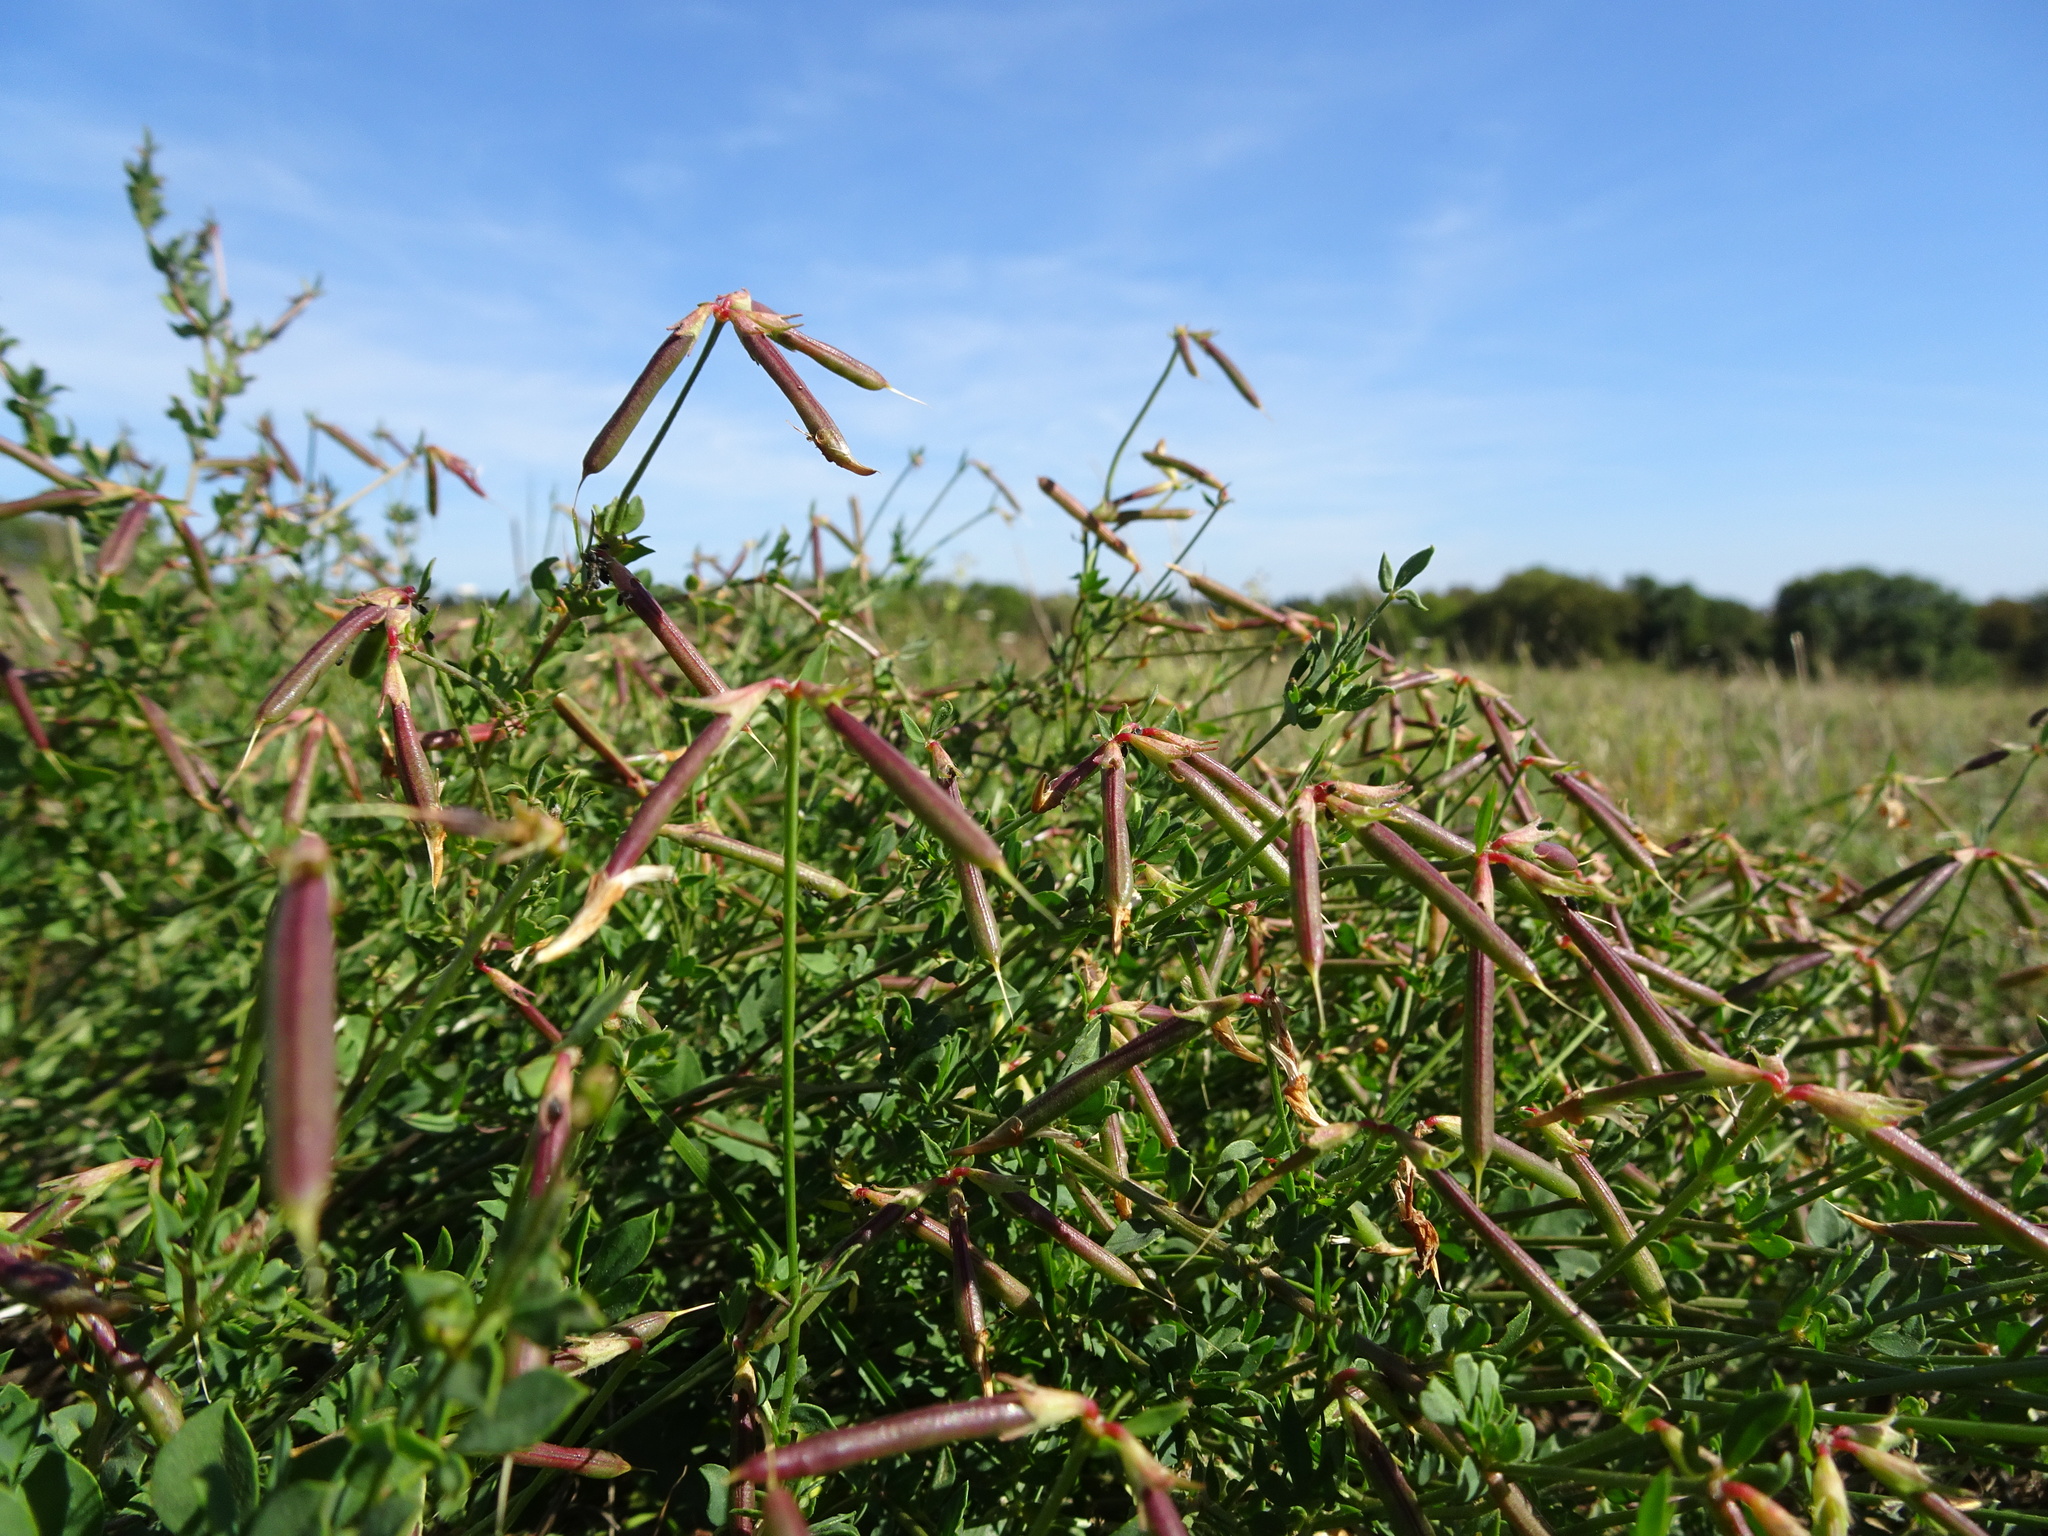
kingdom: Plantae
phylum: Tracheophyta
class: Magnoliopsida
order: Fabales
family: Fabaceae
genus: Lotus
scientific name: Lotus corniculatus
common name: Common bird's-foot-trefoil
